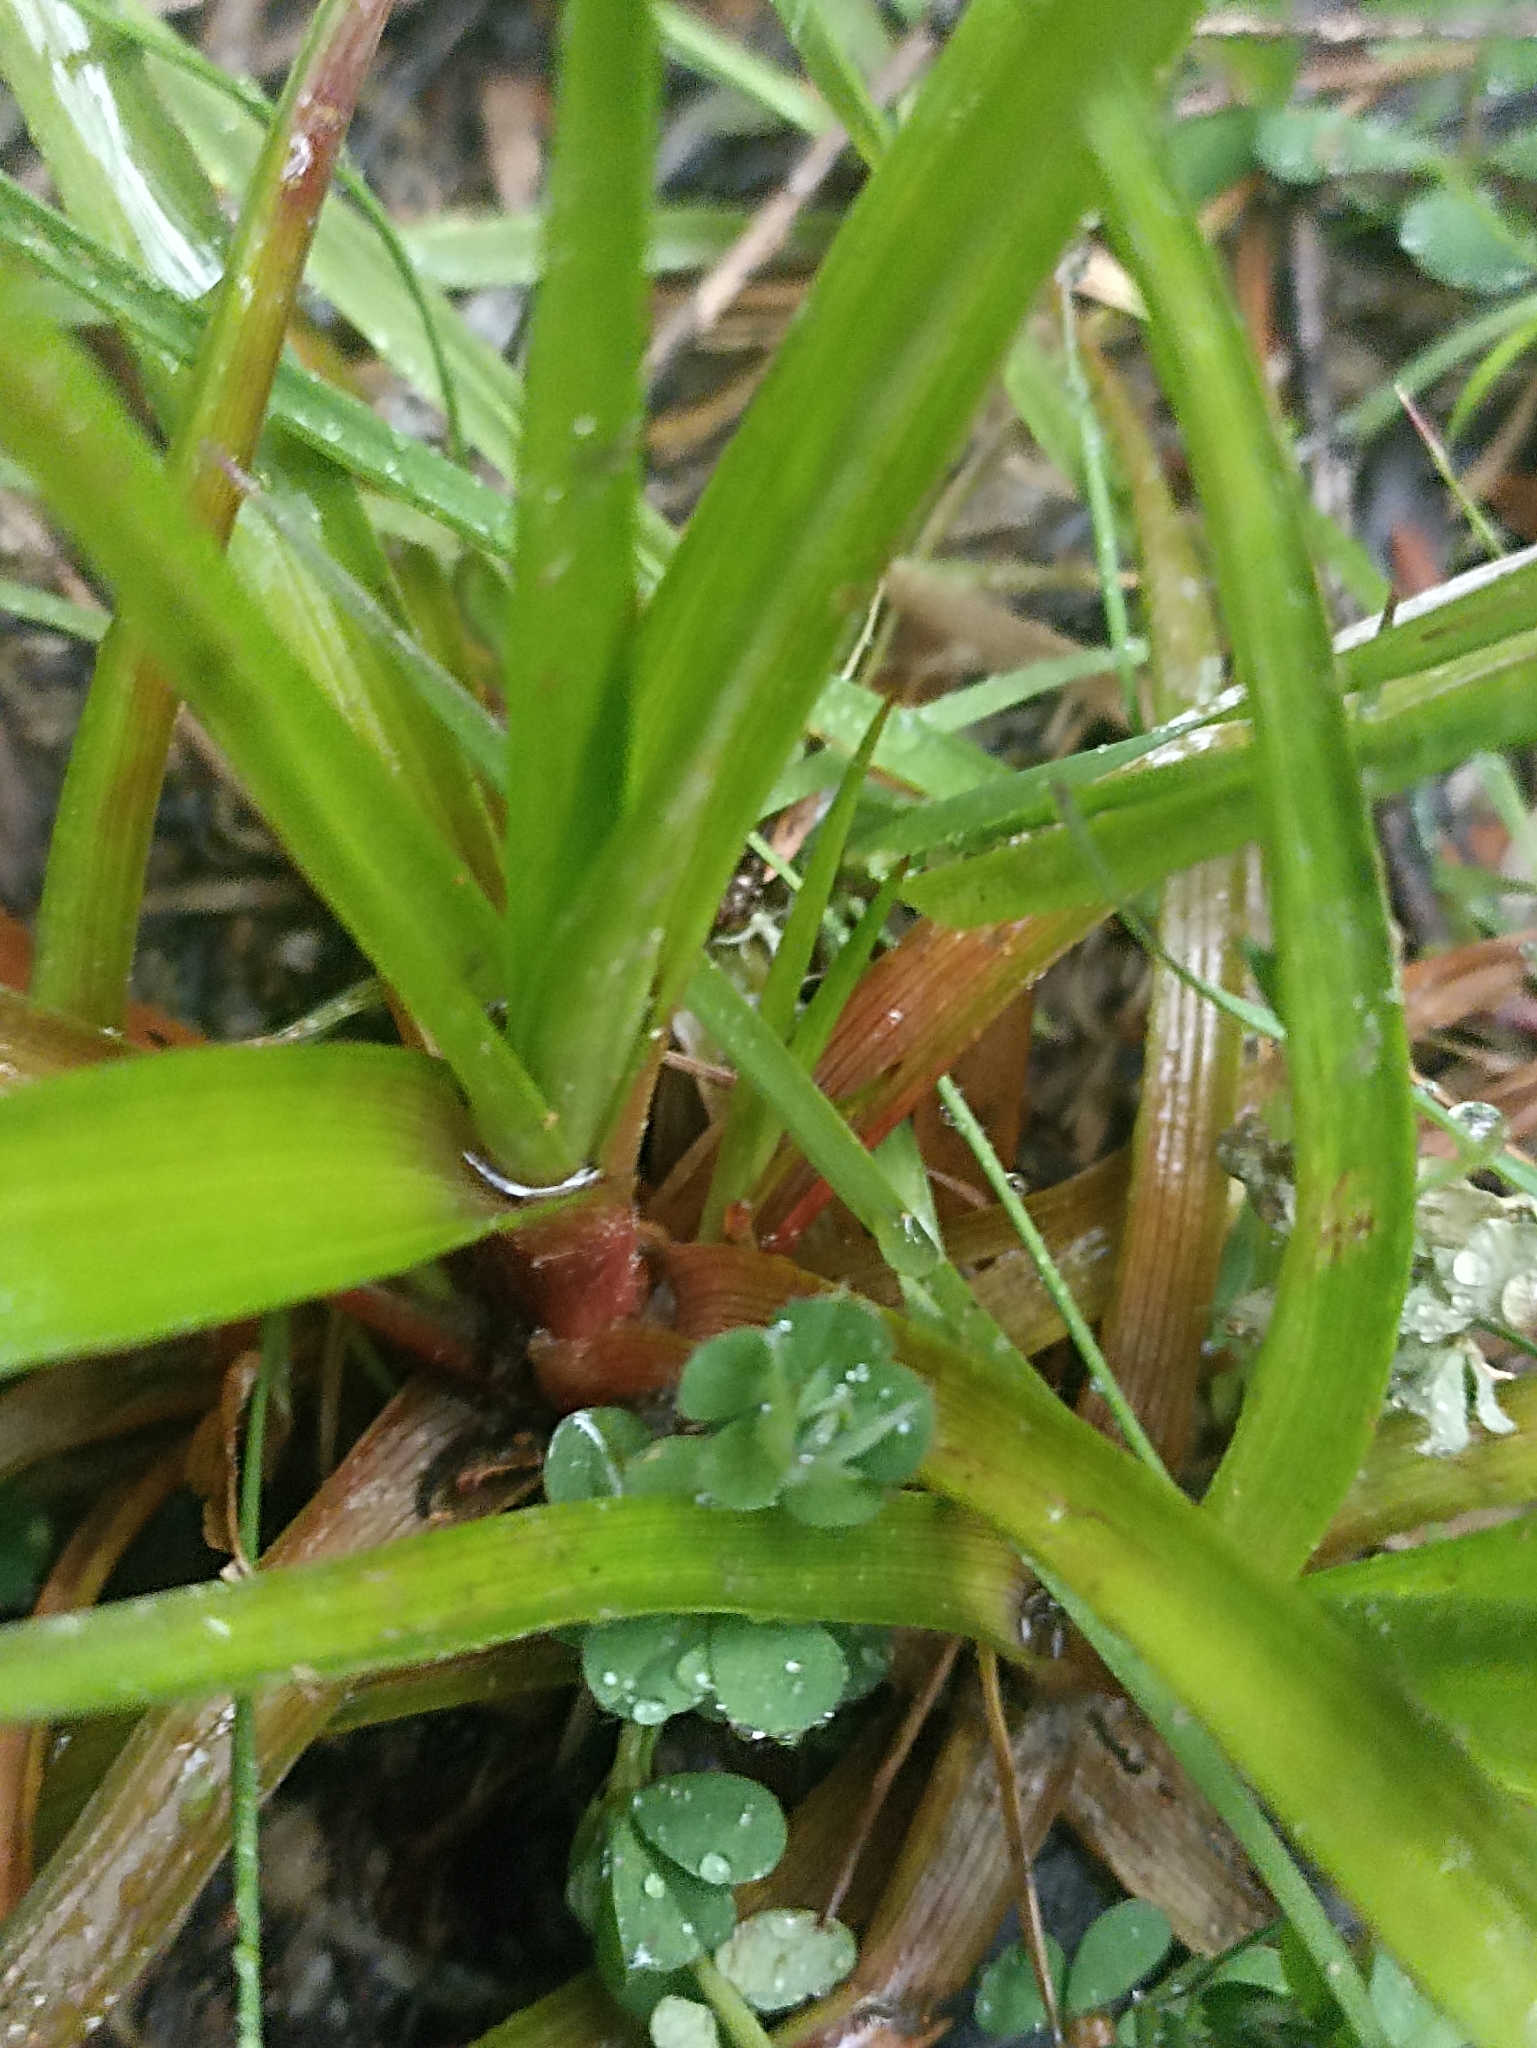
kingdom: Plantae
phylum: Tracheophyta
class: Liliopsida
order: Poales
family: Juncaceae
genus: Juncus
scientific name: Juncus planifolius
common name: Broadleaf rush
